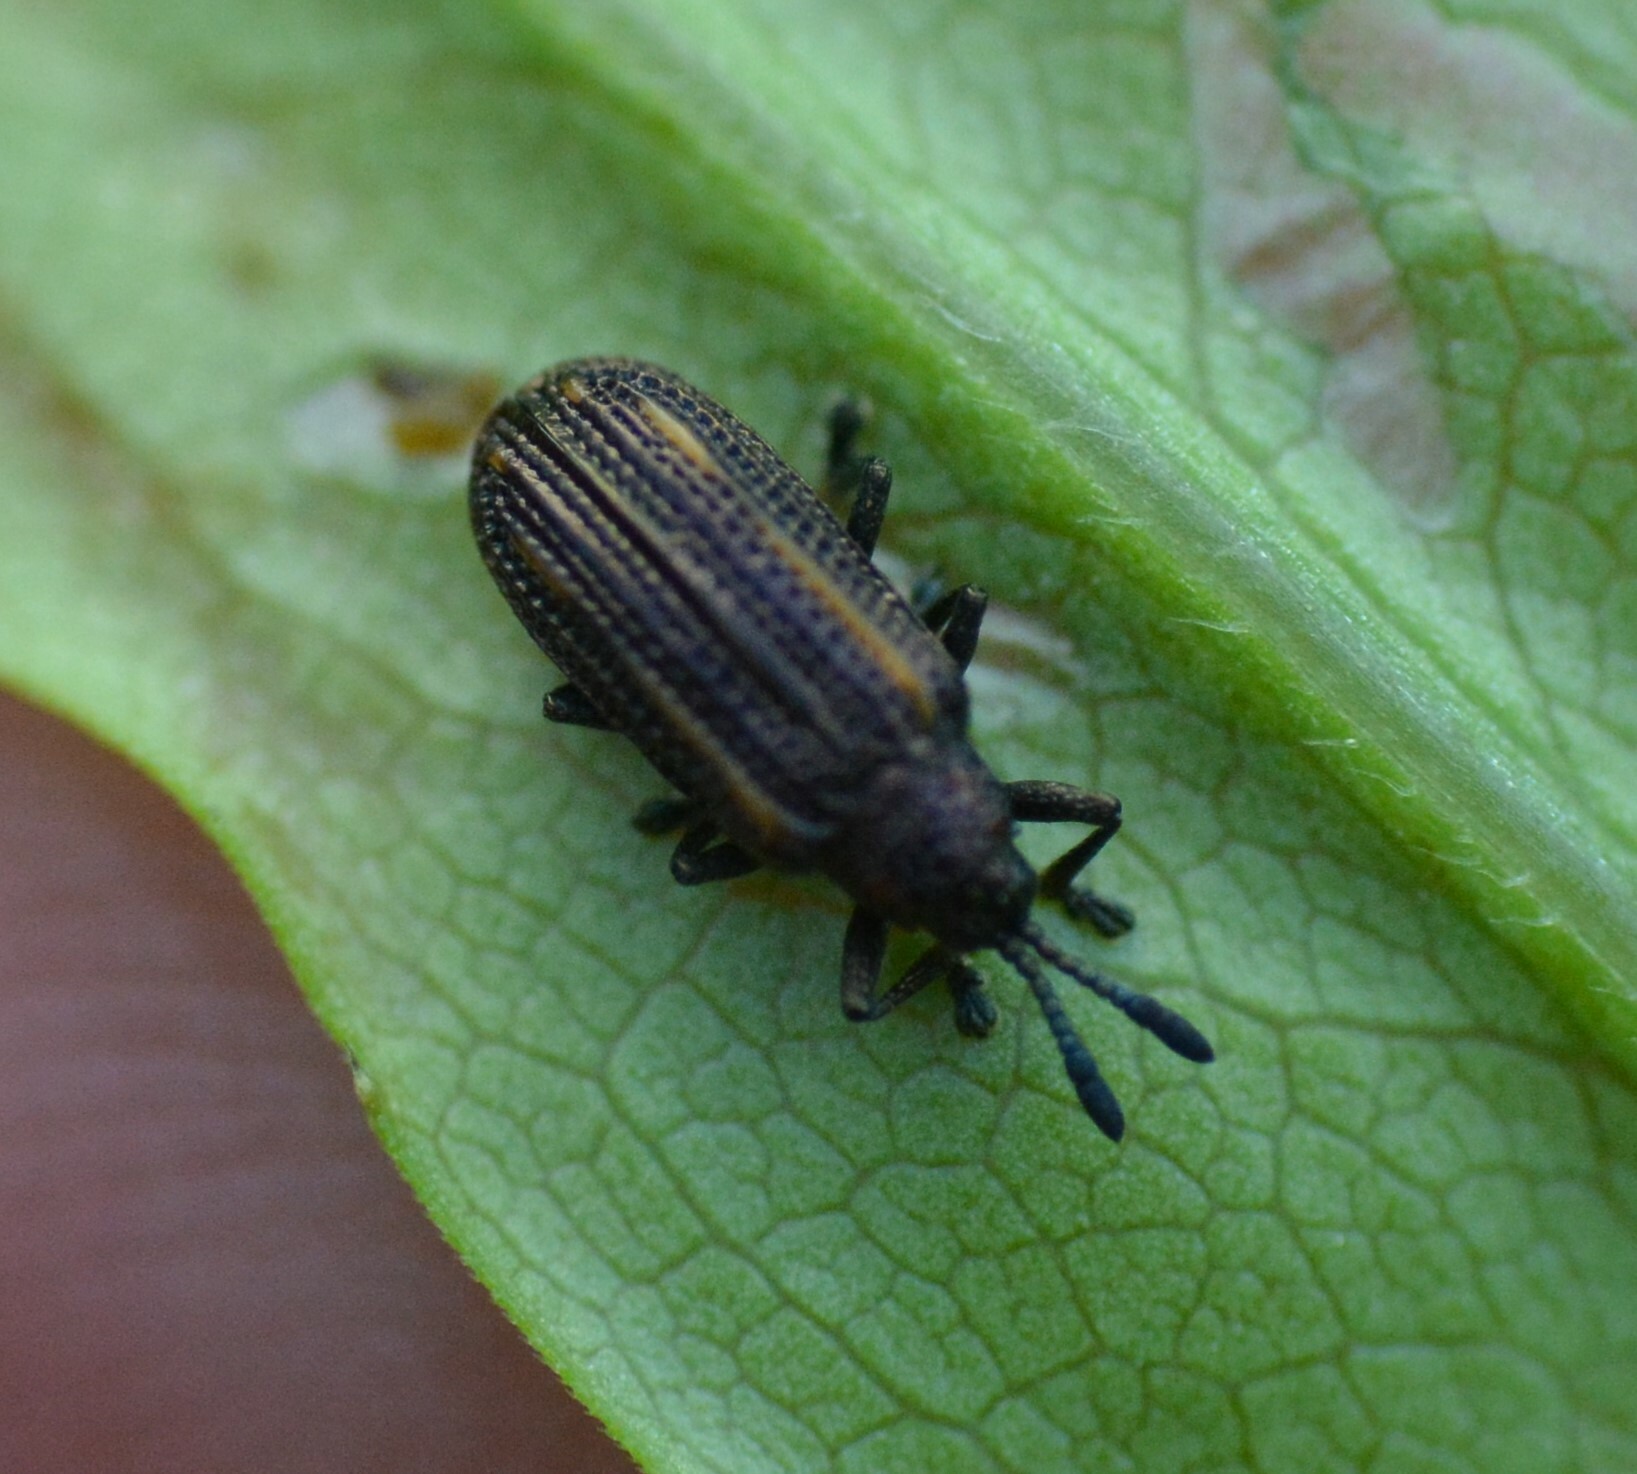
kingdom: Animalia
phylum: Arthropoda
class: Insecta
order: Coleoptera
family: Chrysomelidae
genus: Microrhopala
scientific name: Microrhopala xerene
